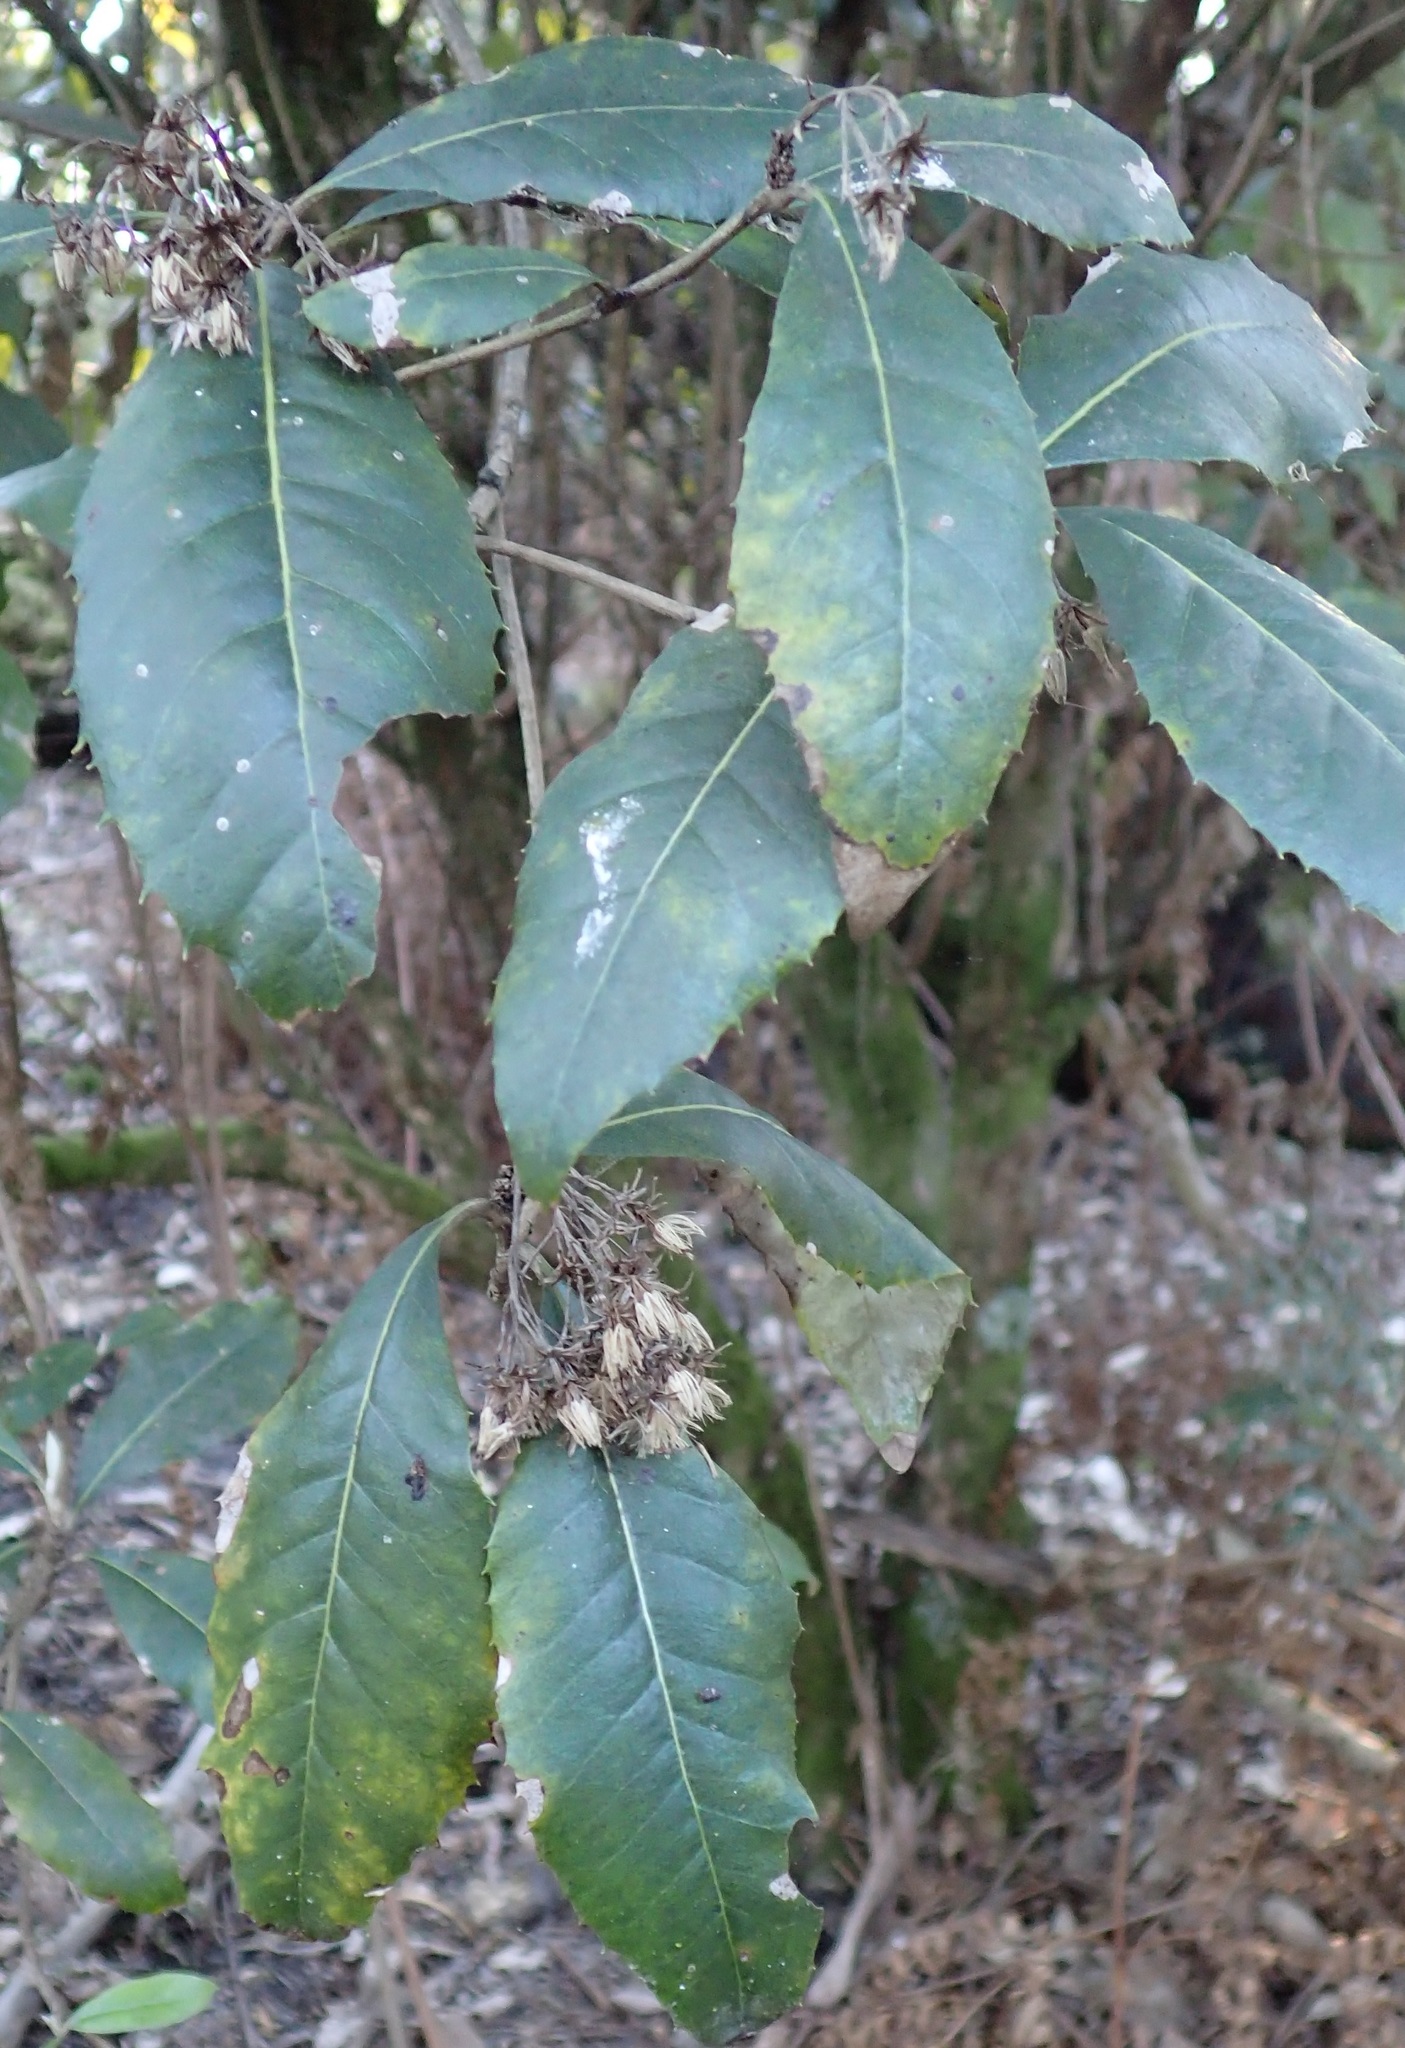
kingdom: Plantae
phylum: Tracheophyta
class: Magnoliopsida
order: Asterales
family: Asteraceae
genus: Olearia
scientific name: Olearia argophylla
